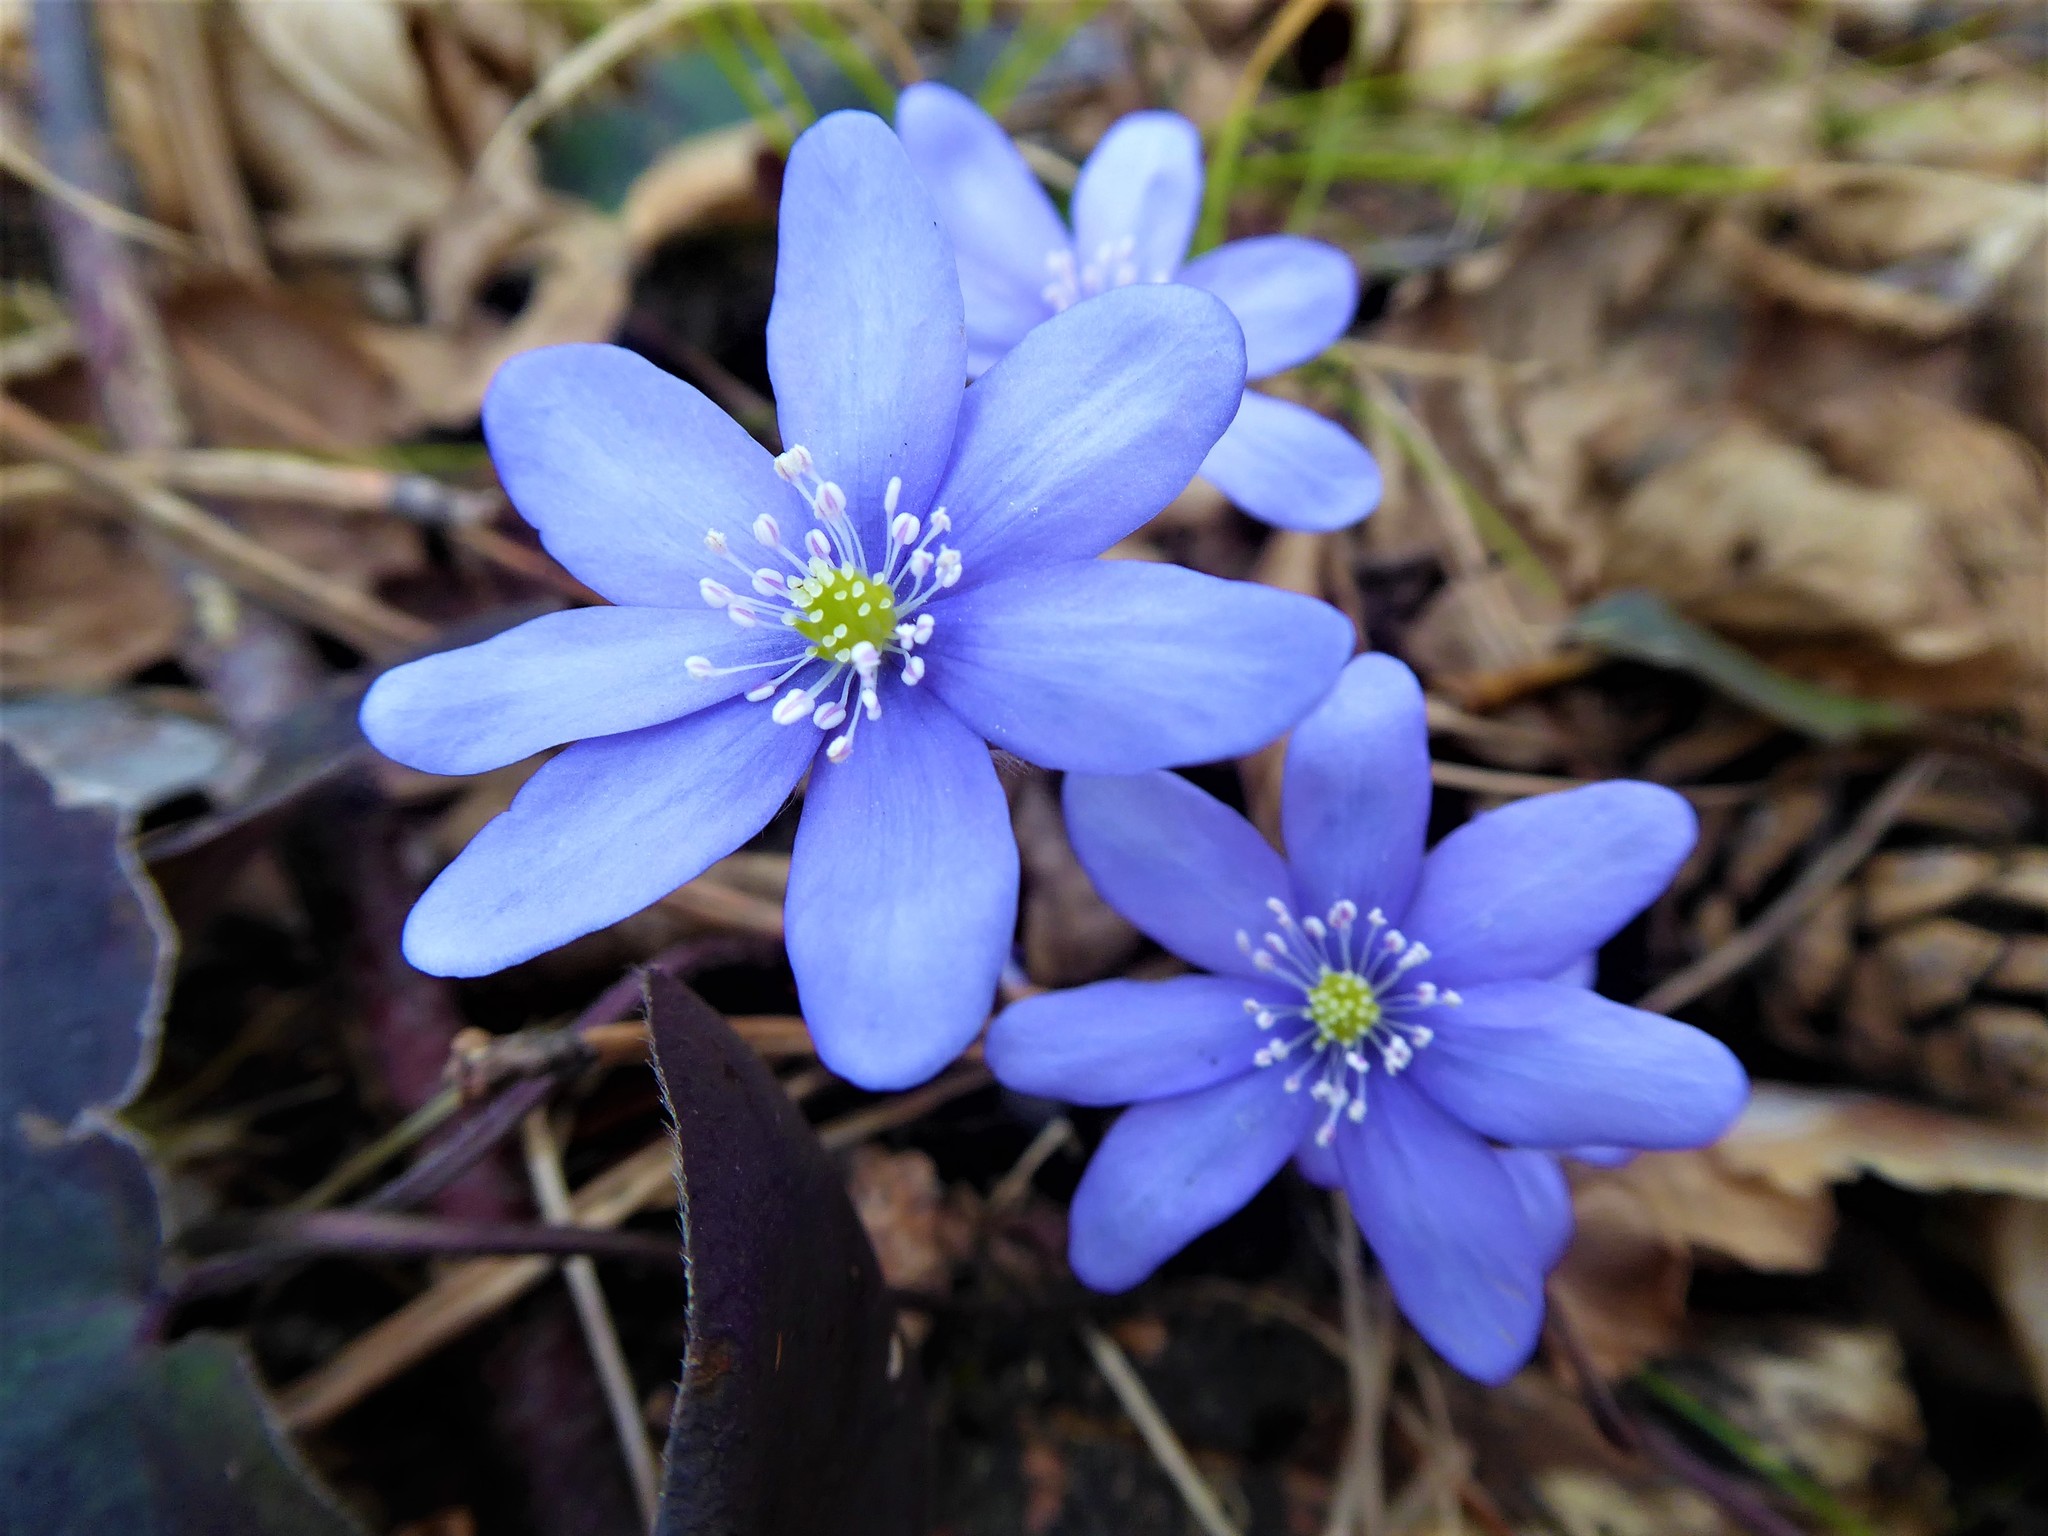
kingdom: Plantae
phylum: Tracheophyta
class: Magnoliopsida
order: Ranunculales
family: Ranunculaceae
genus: Hepatica
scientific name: Hepatica nobilis
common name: Liverleaf
